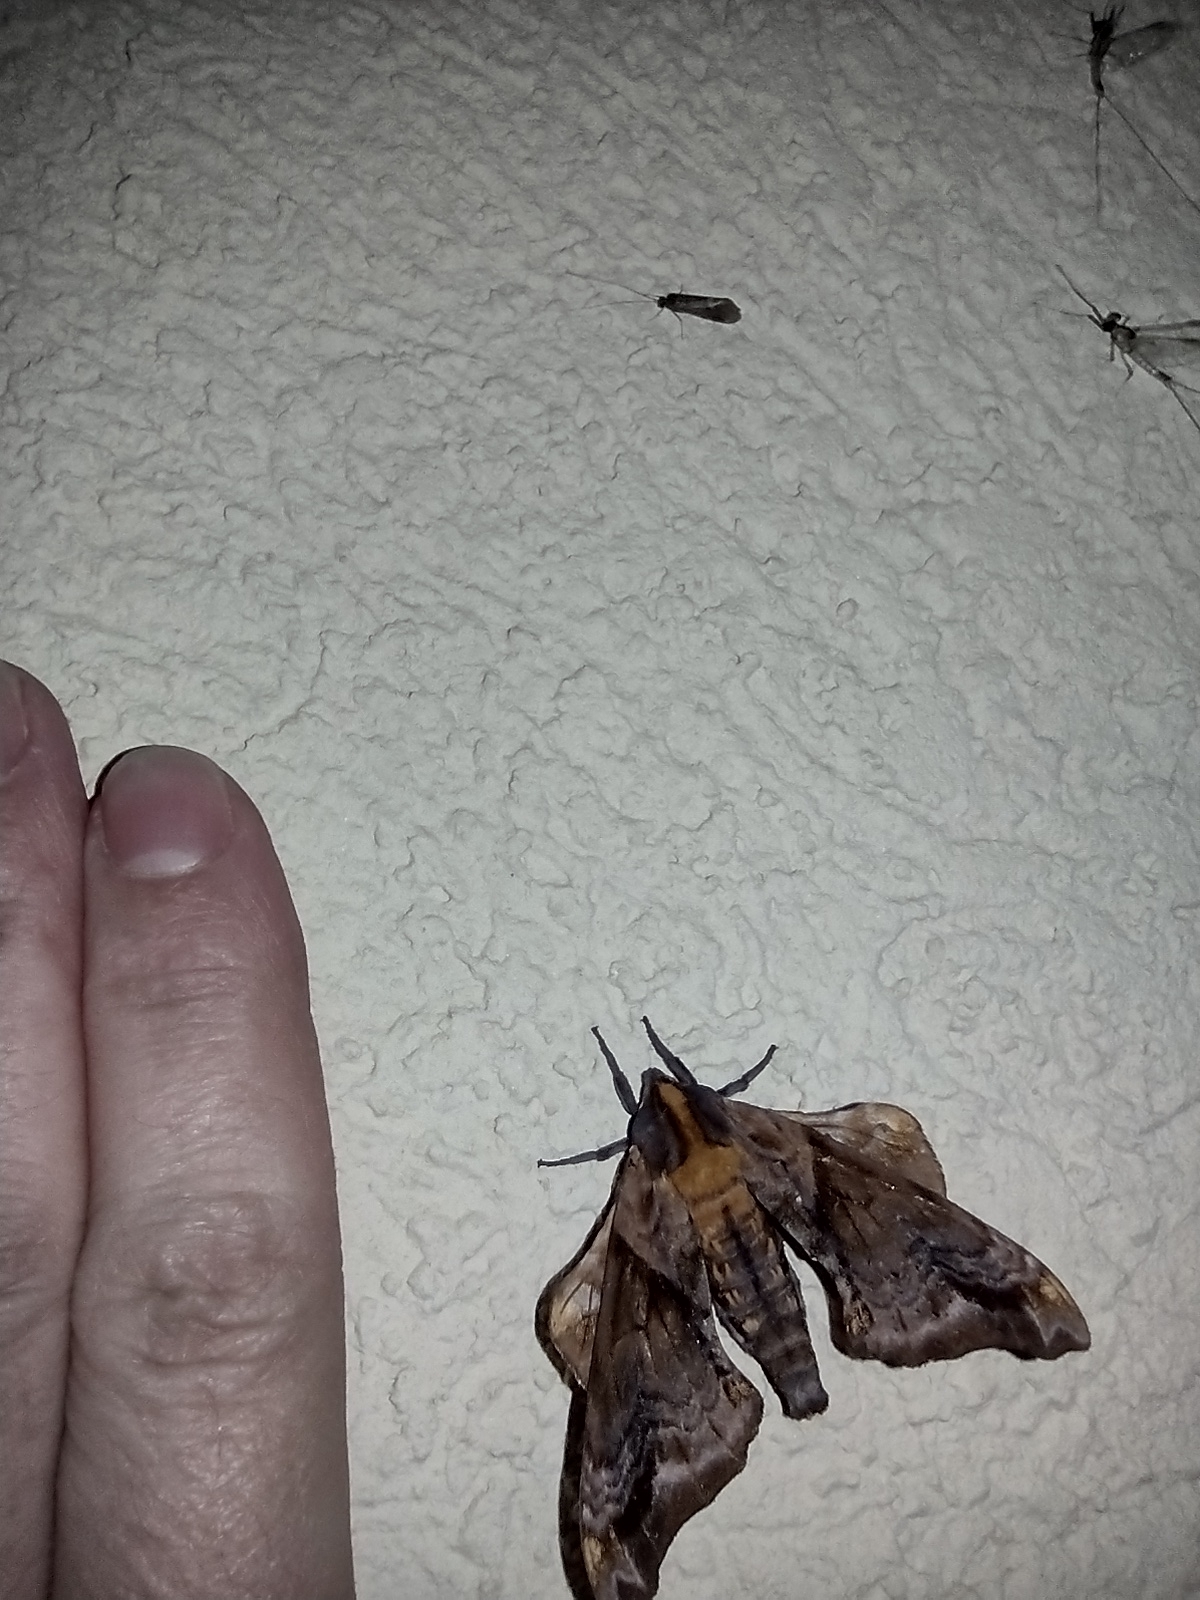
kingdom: Animalia
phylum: Arthropoda
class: Insecta
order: Lepidoptera
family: Sphingidae
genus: Paonias
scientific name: Paonias myops
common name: Small-eyed sphinx
